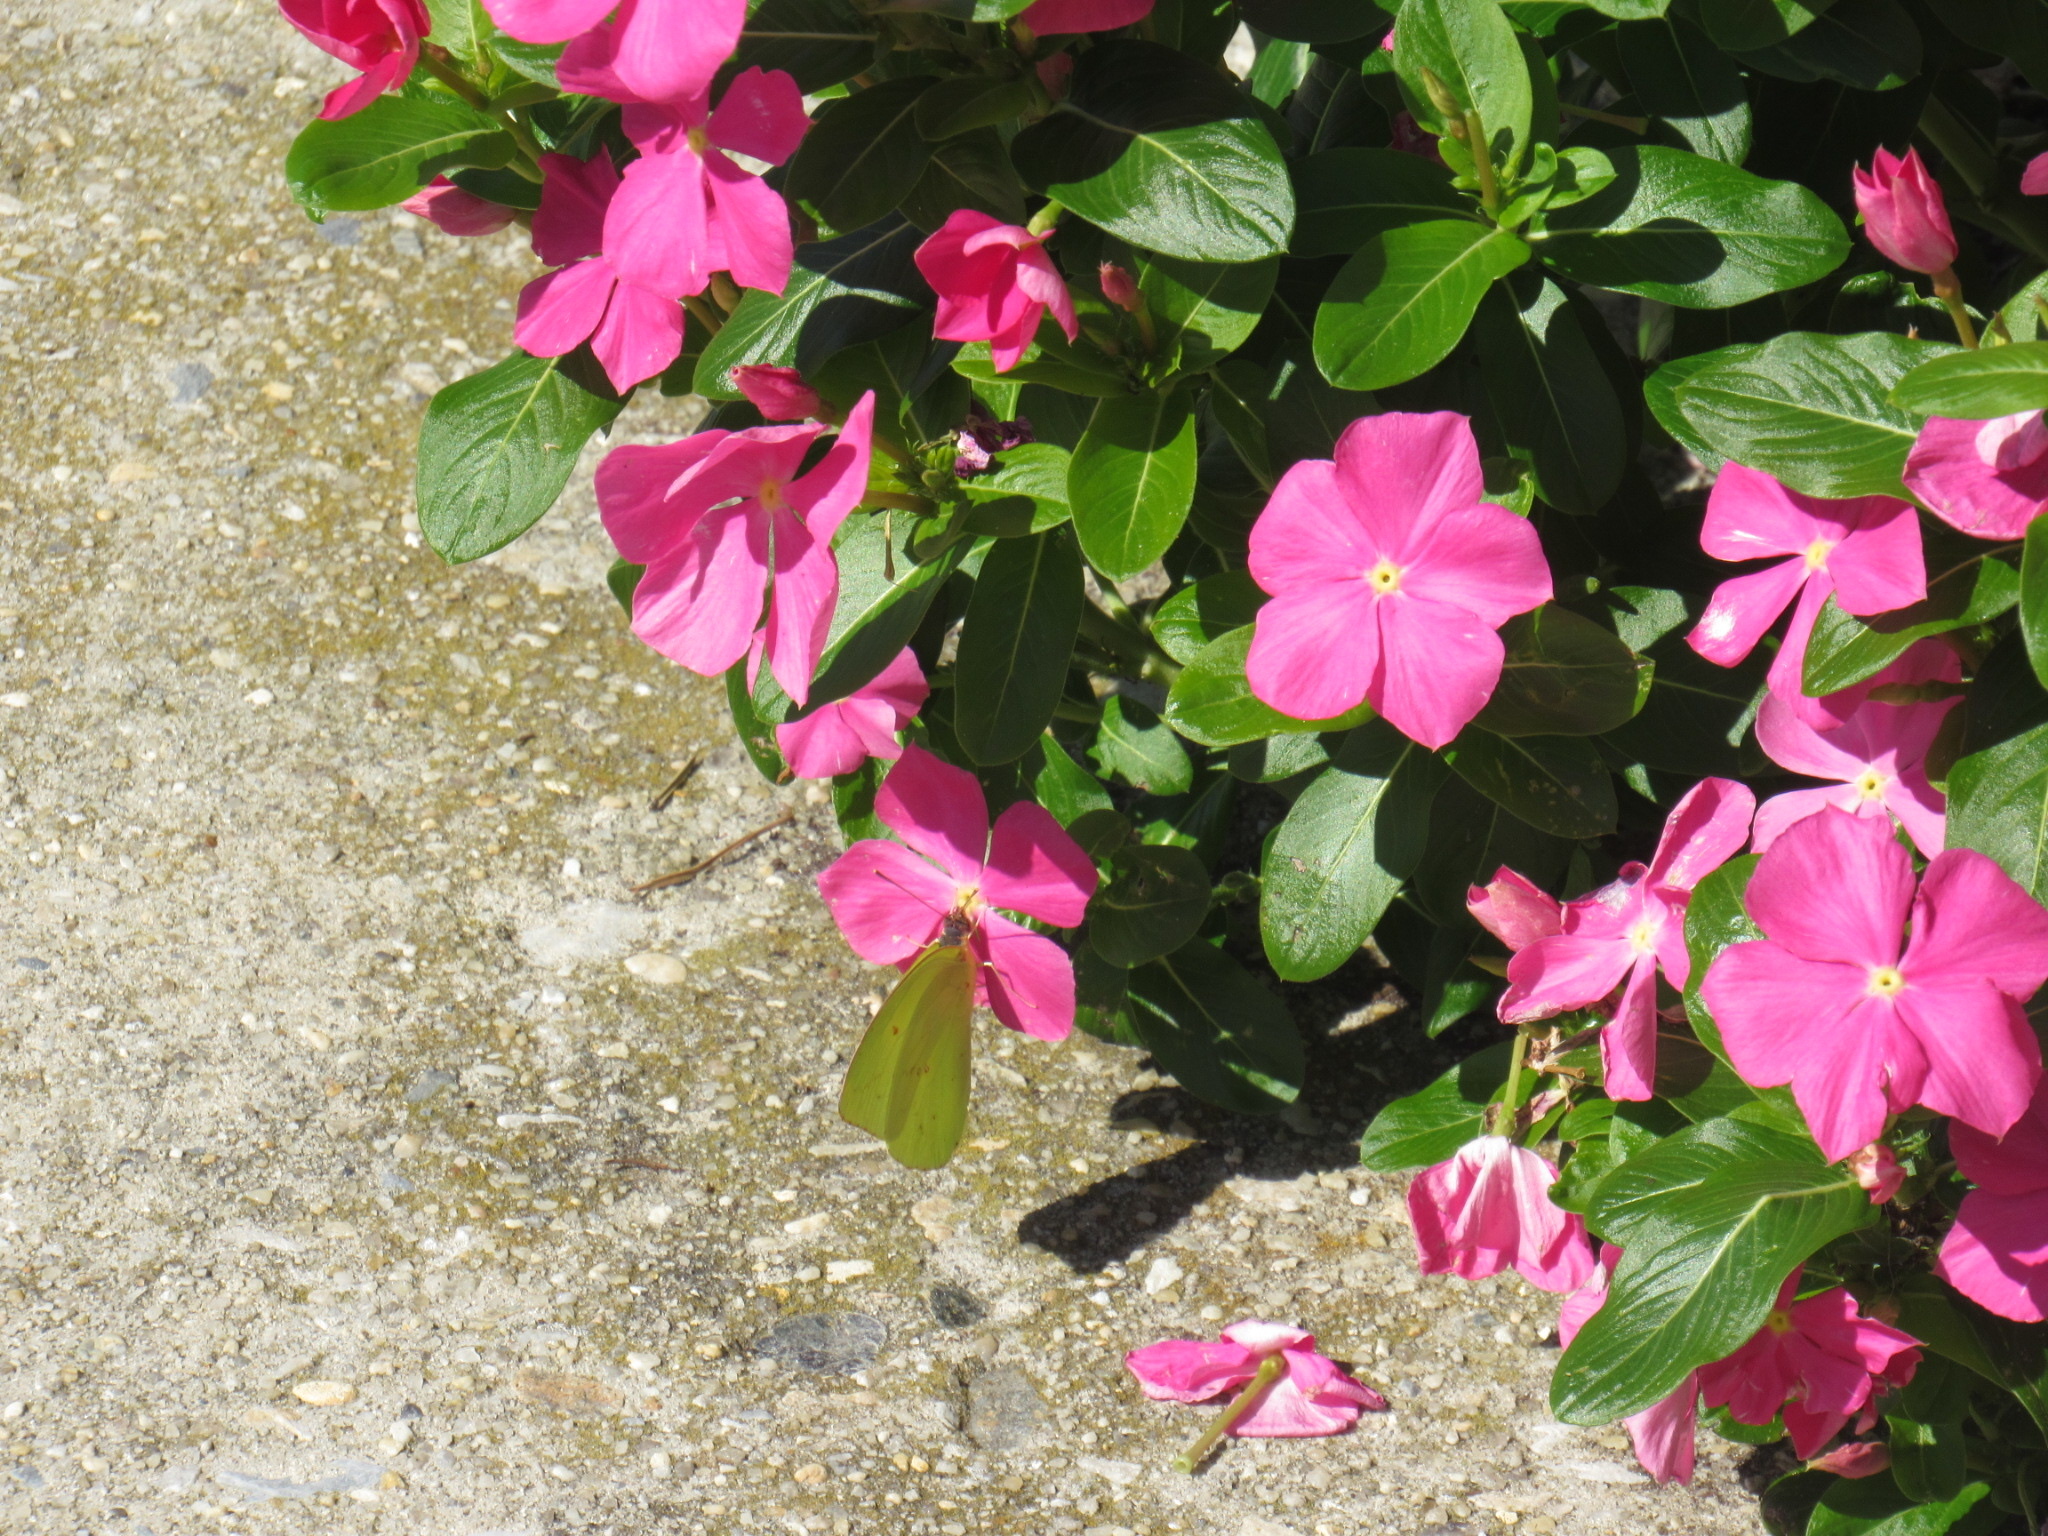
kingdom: Animalia
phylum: Arthropoda
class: Insecta
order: Lepidoptera
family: Pieridae
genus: Phoebis
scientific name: Phoebis sennae
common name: Cloudless sulphur
